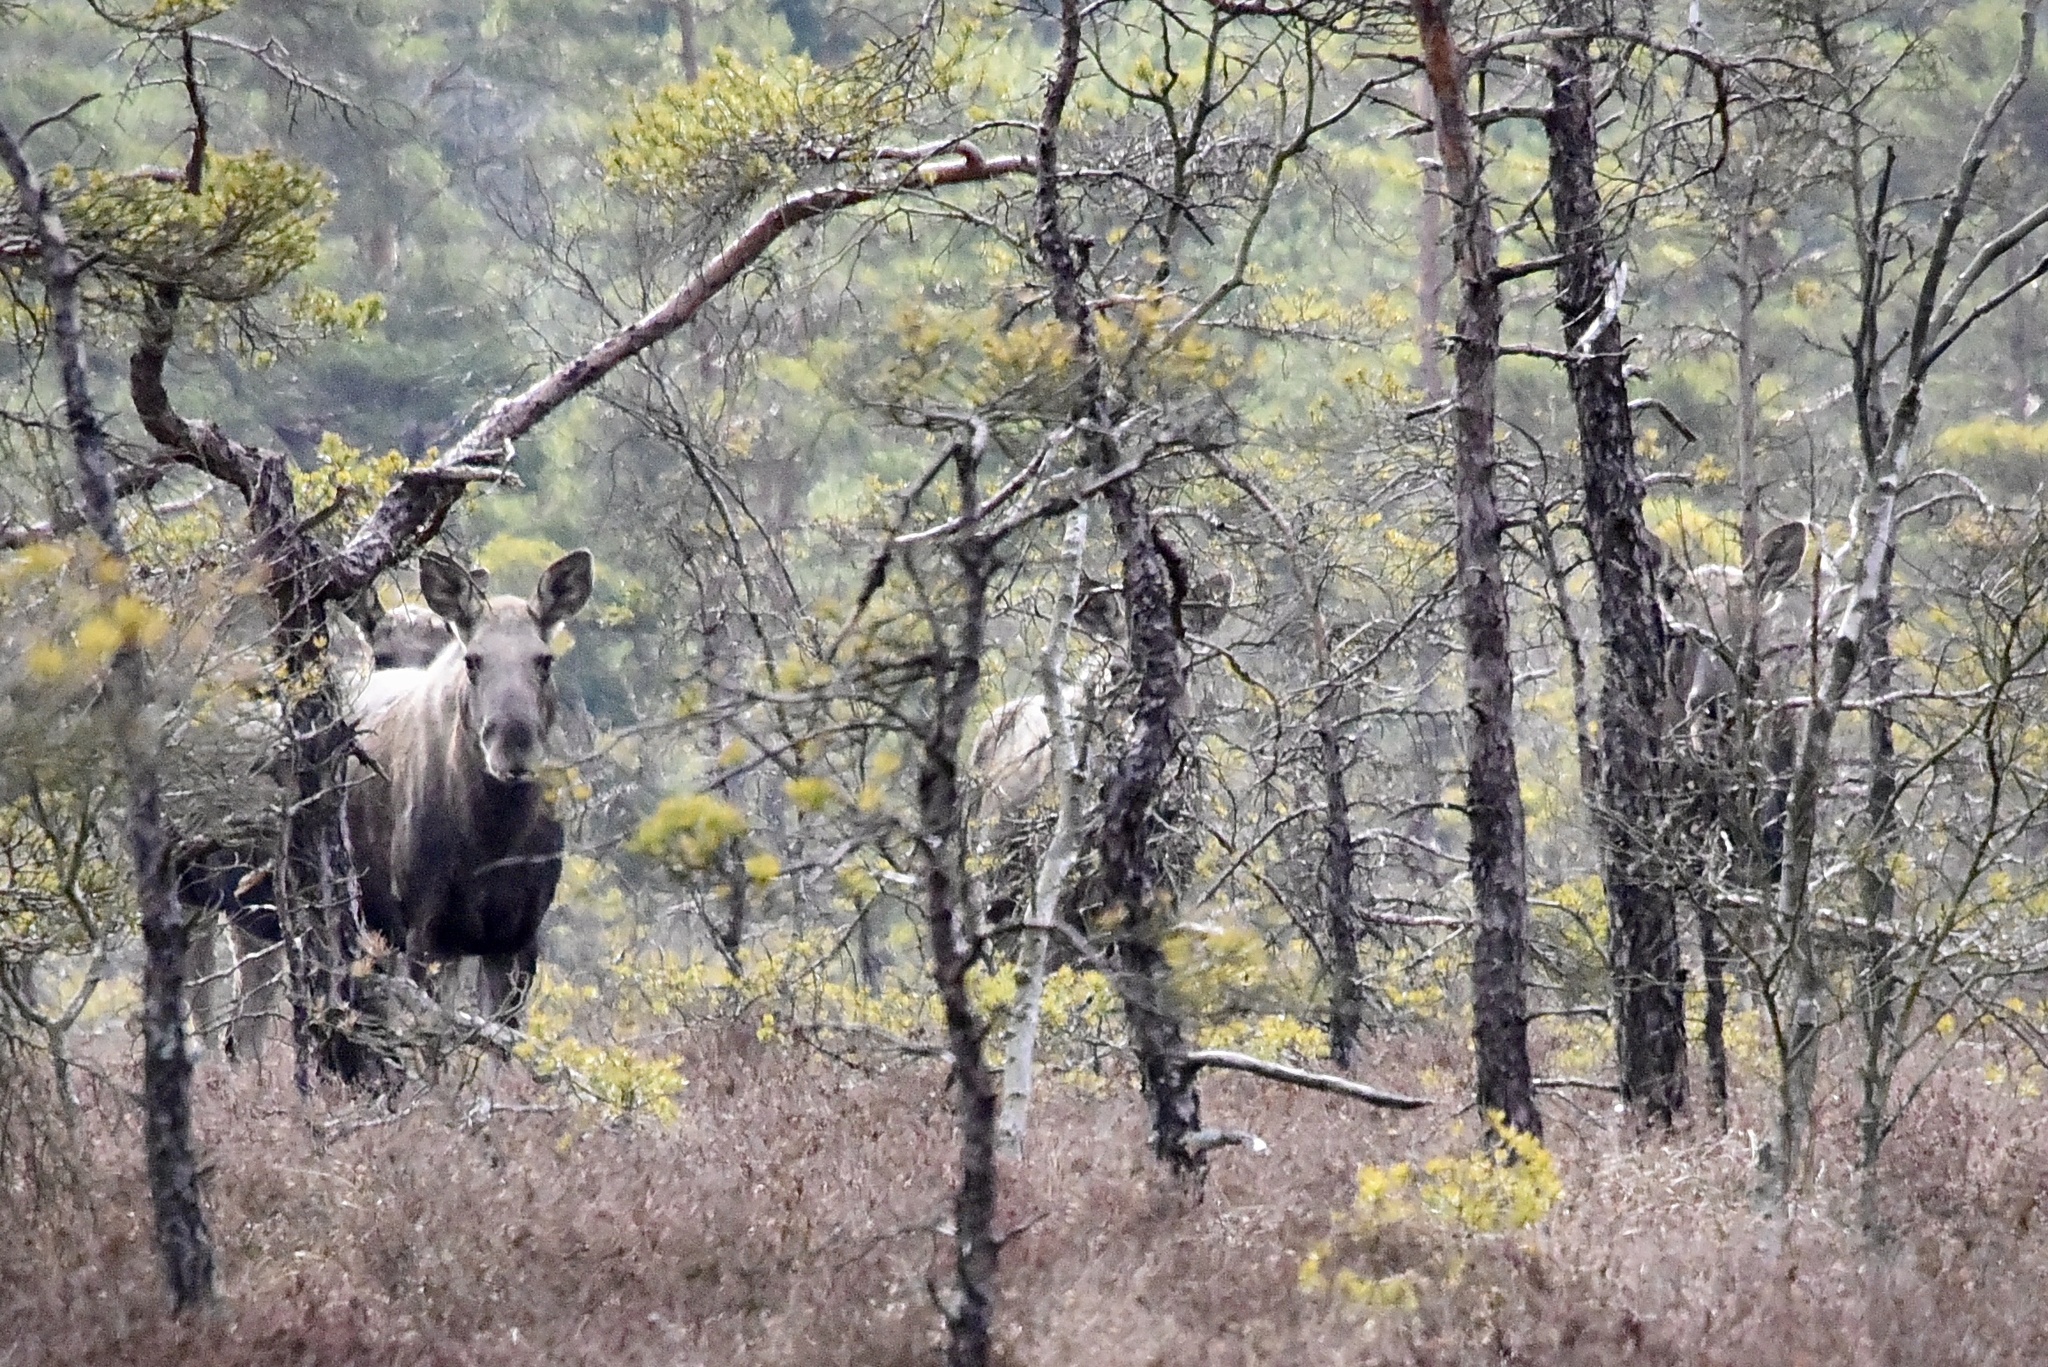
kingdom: Animalia
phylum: Chordata
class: Mammalia
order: Artiodactyla
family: Cervidae
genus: Alces
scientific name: Alces alces
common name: Moose
